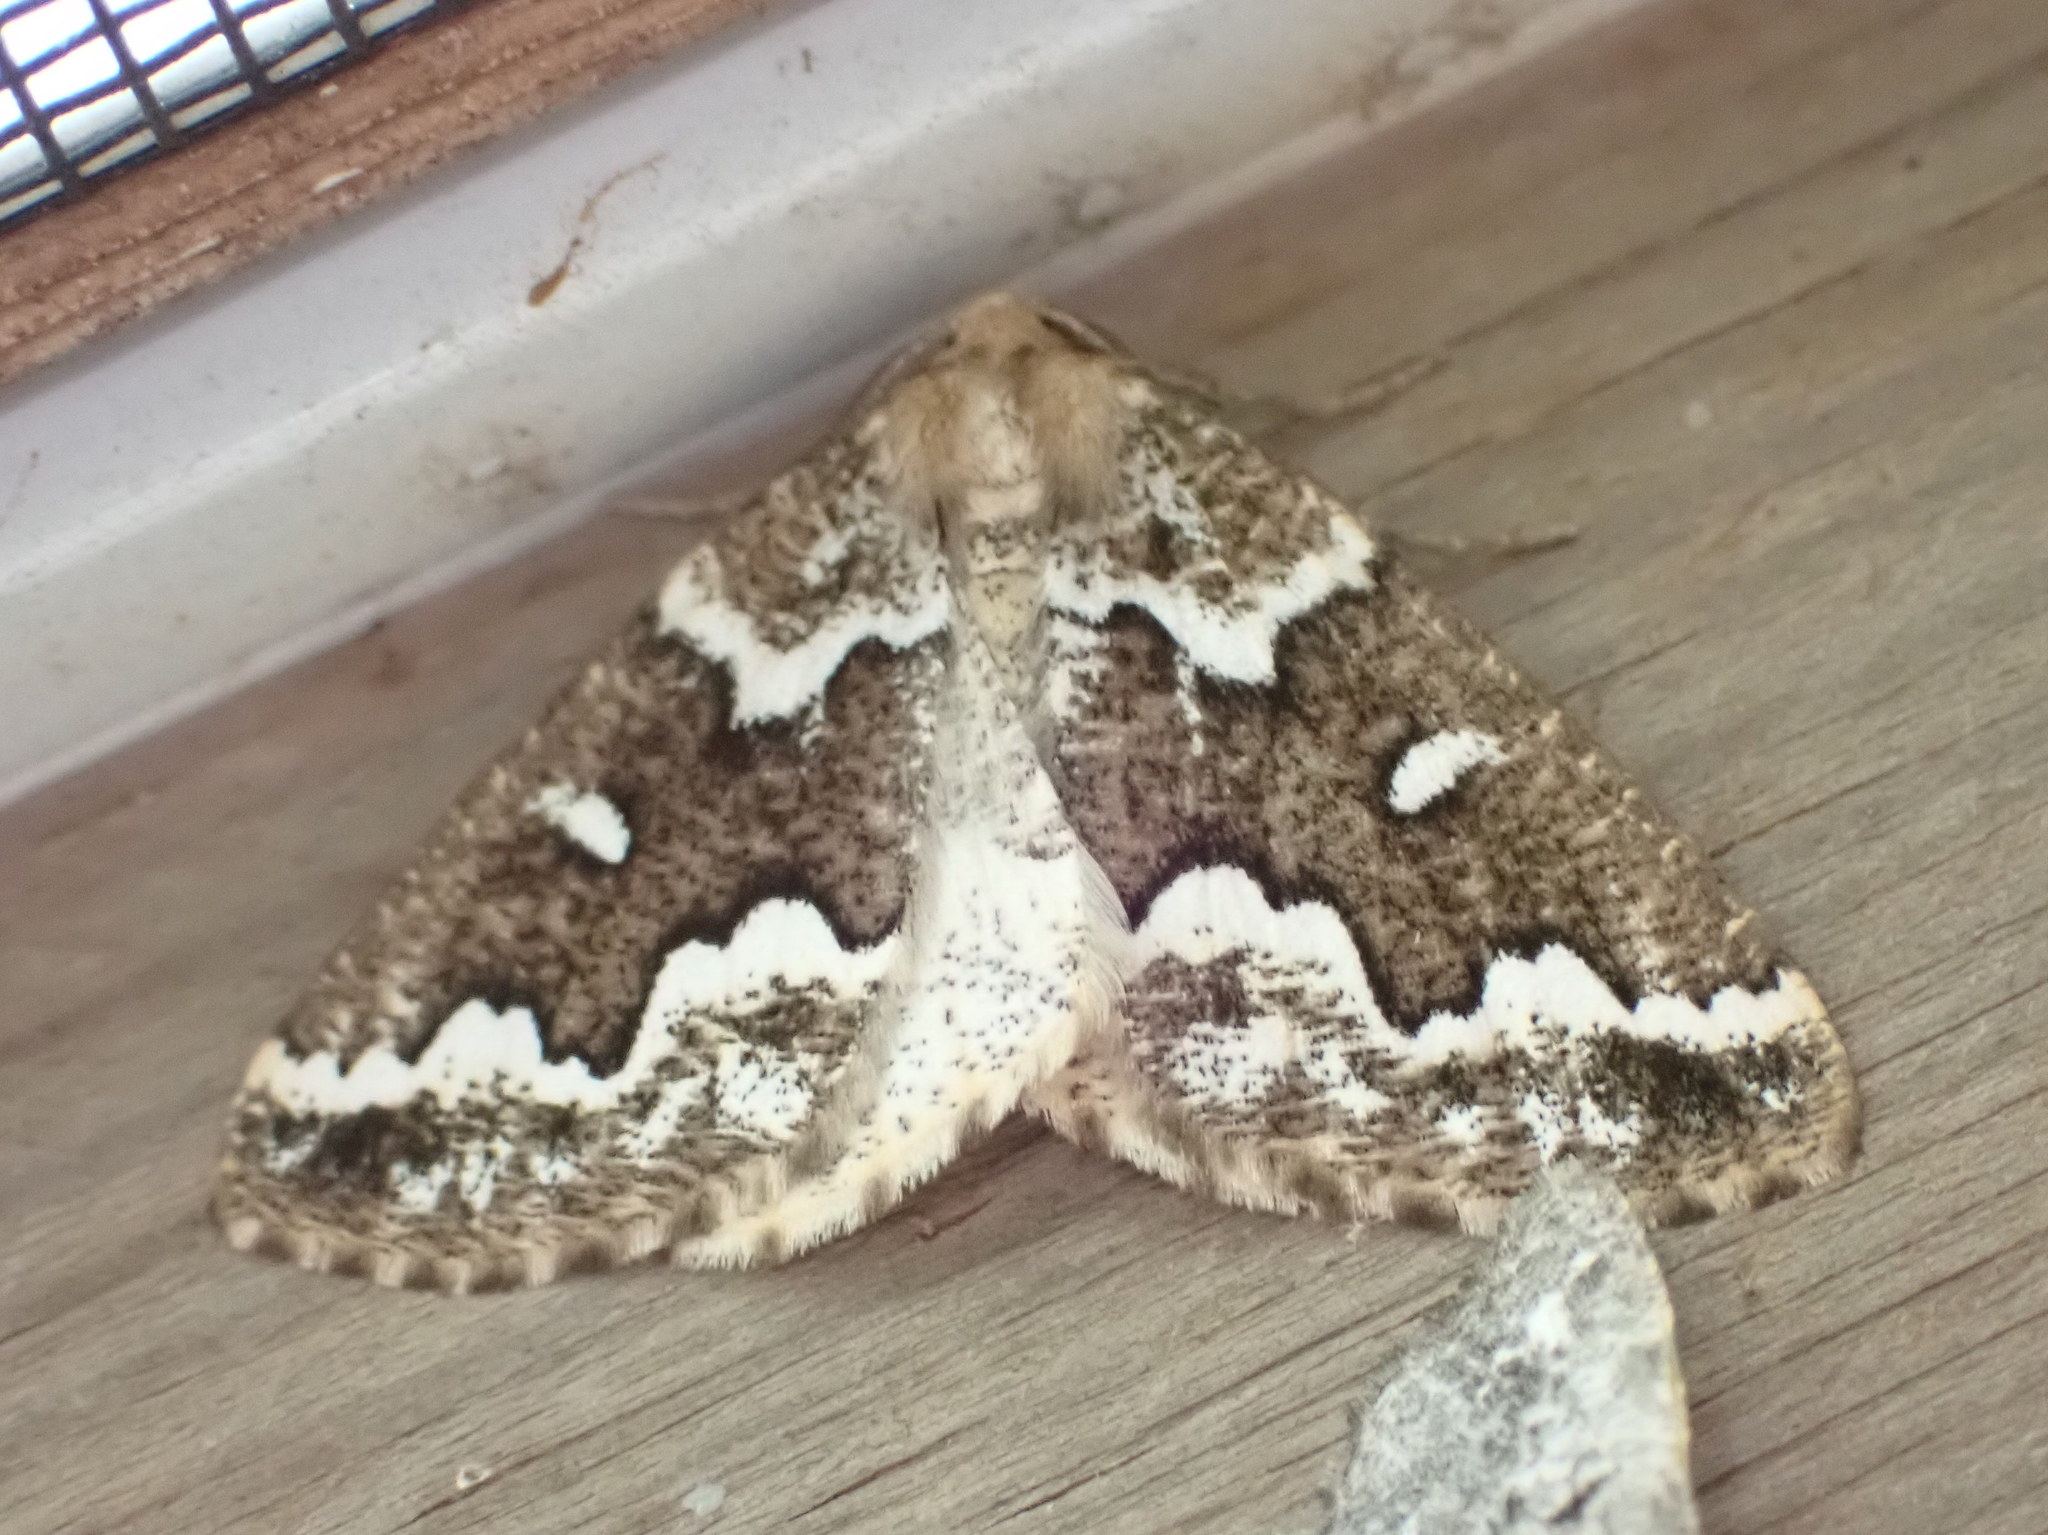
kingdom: Animalia
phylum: Arthropoda
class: Insecta
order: Lepidoptera
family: Geometridae
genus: Caripeta
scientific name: Caripeta divisata
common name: Gray spruce looper
